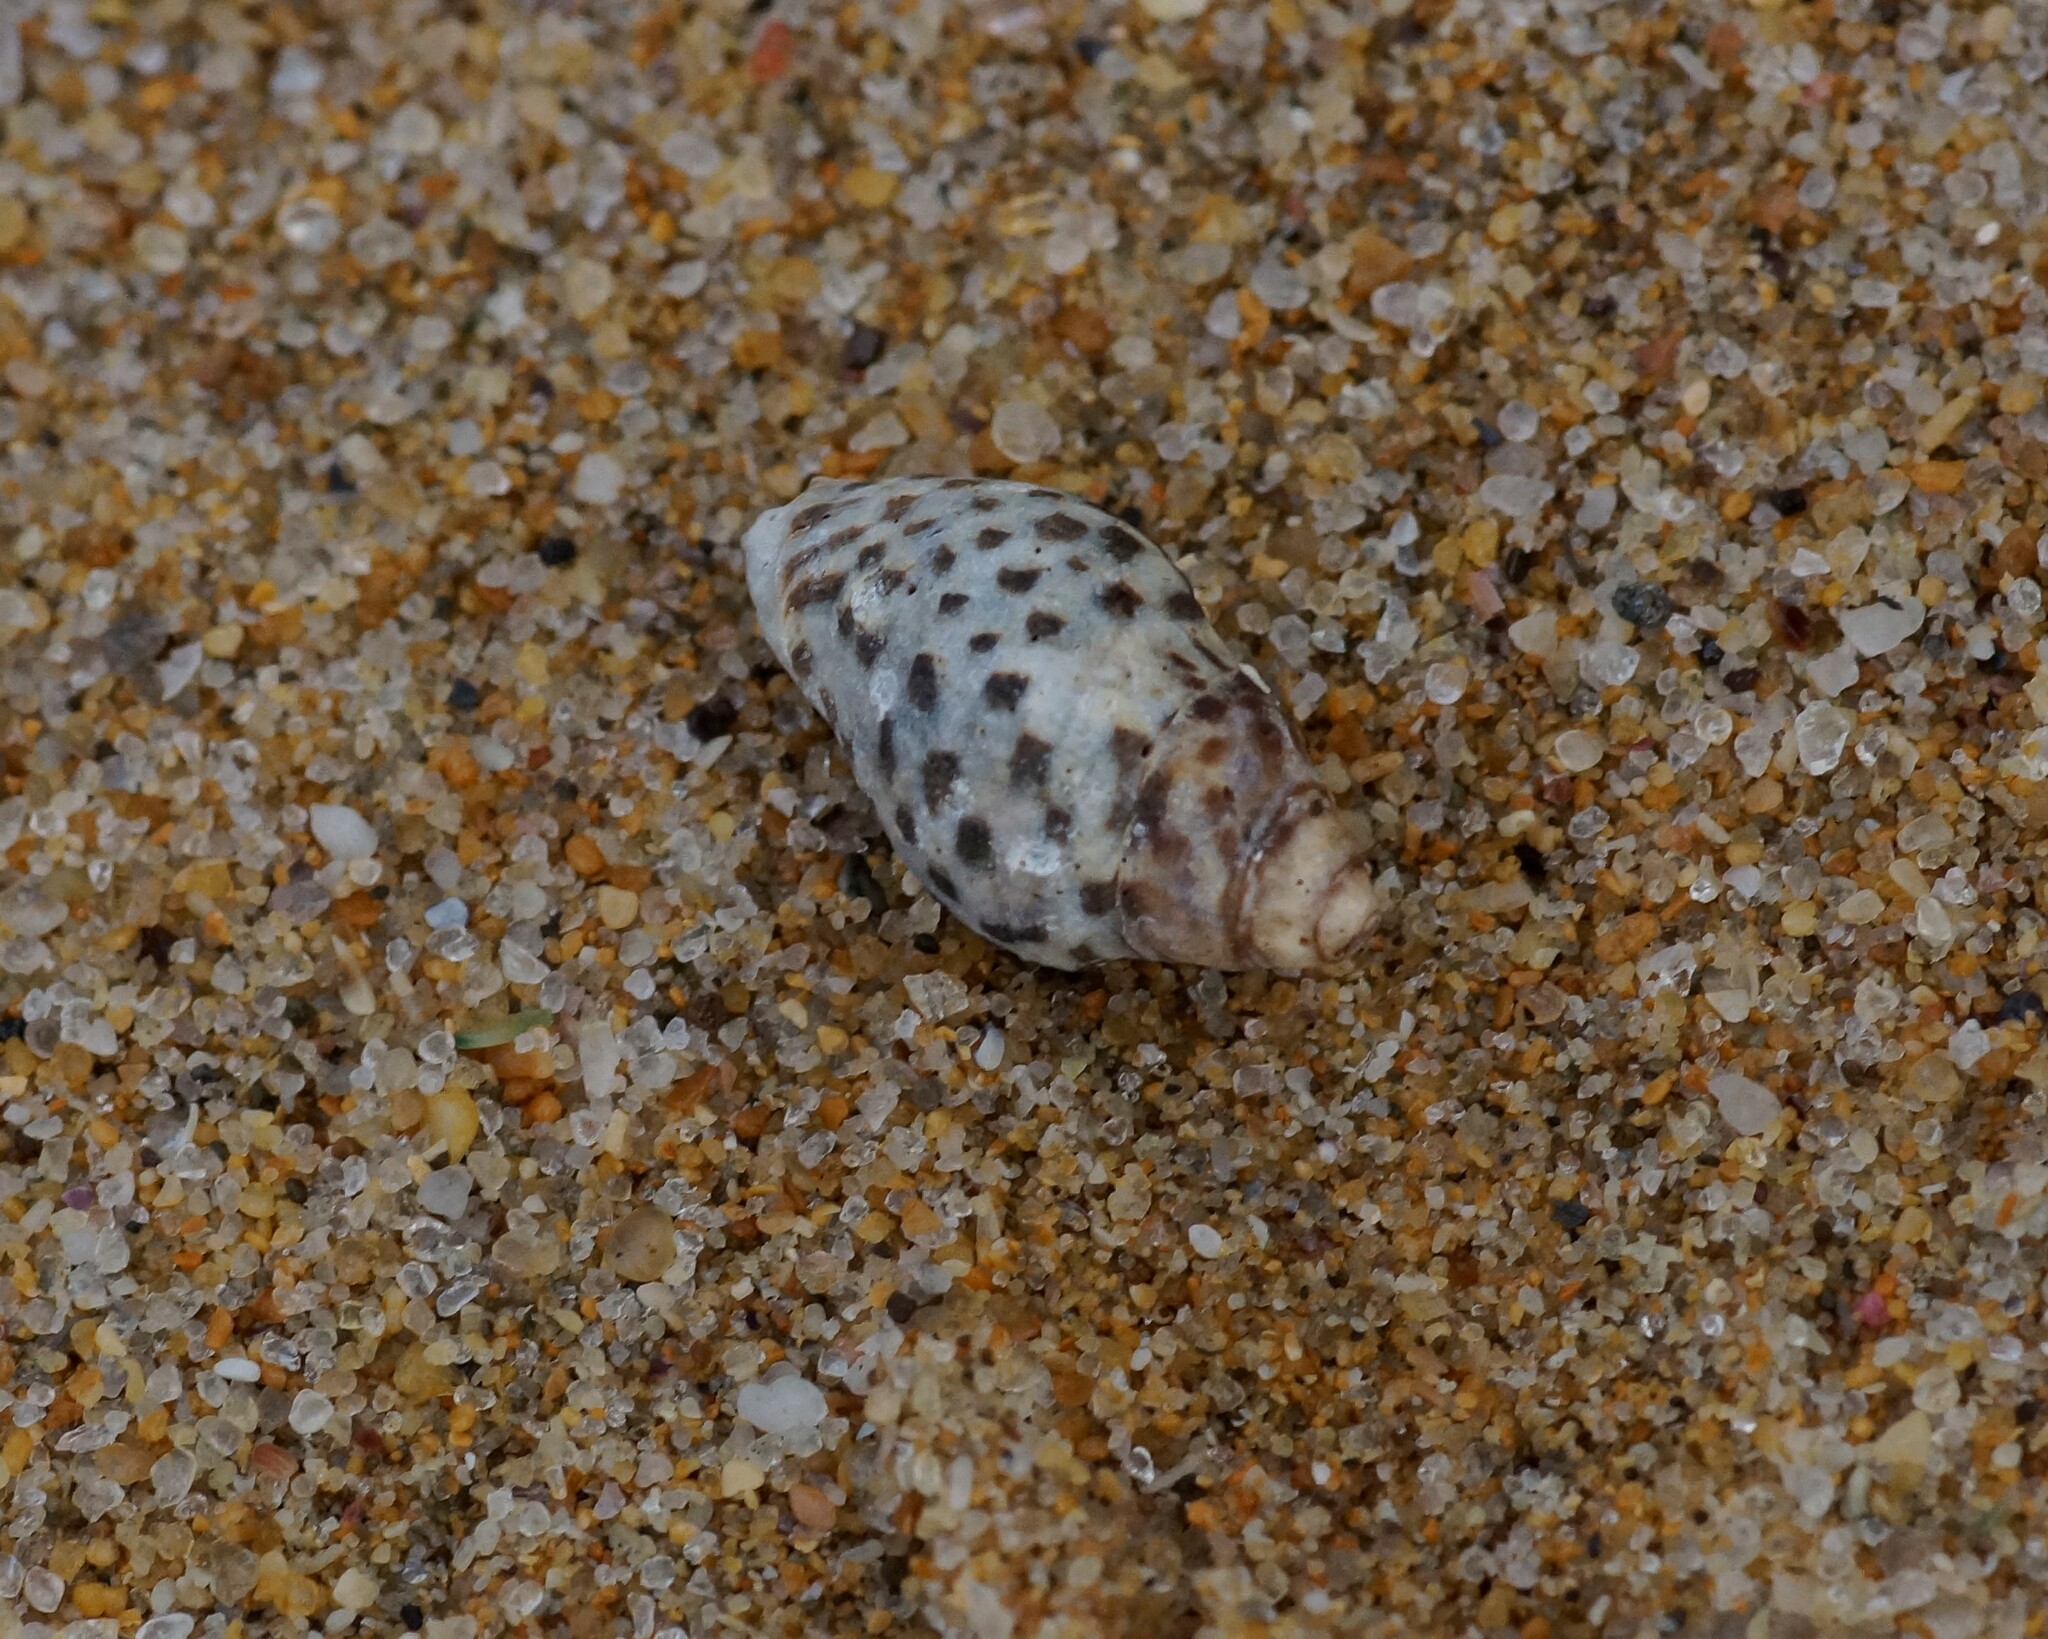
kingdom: Animalia
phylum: Mollusca
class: Gastropoda
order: Neogastropoda
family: Cominellidae
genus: Cominella
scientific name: Cominella lineolata
